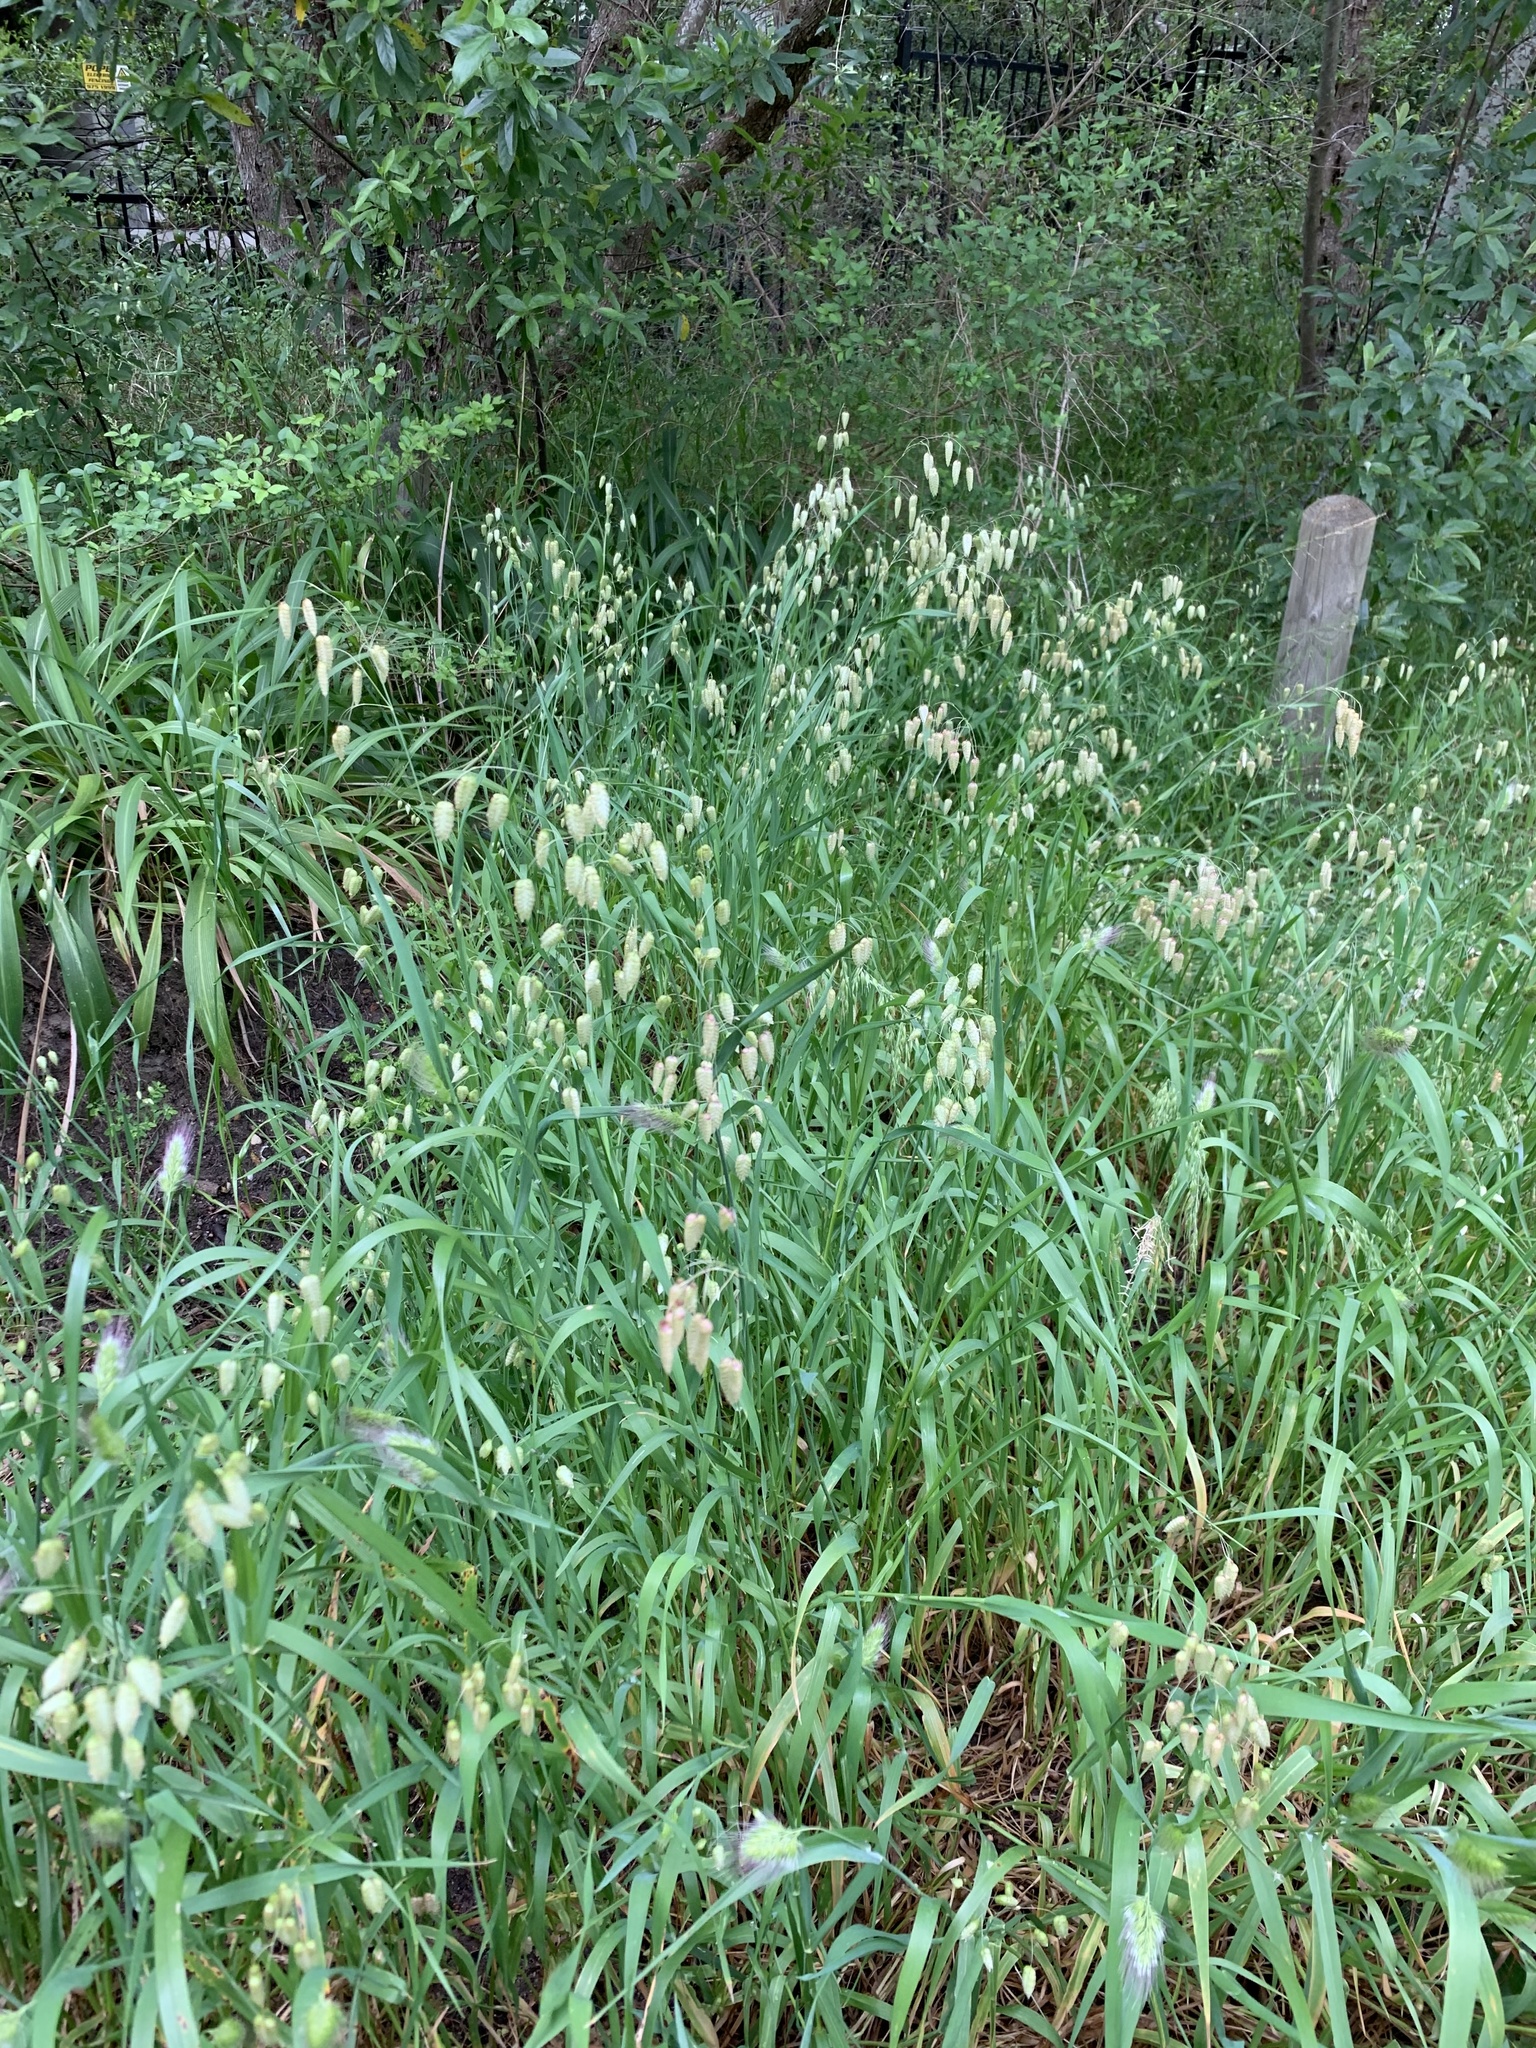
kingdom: Plantae
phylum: Tracheophyta
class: Liliopsida
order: Poales
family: Poaceae
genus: Briza
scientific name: Briza maxima
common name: Big quakinggrass
